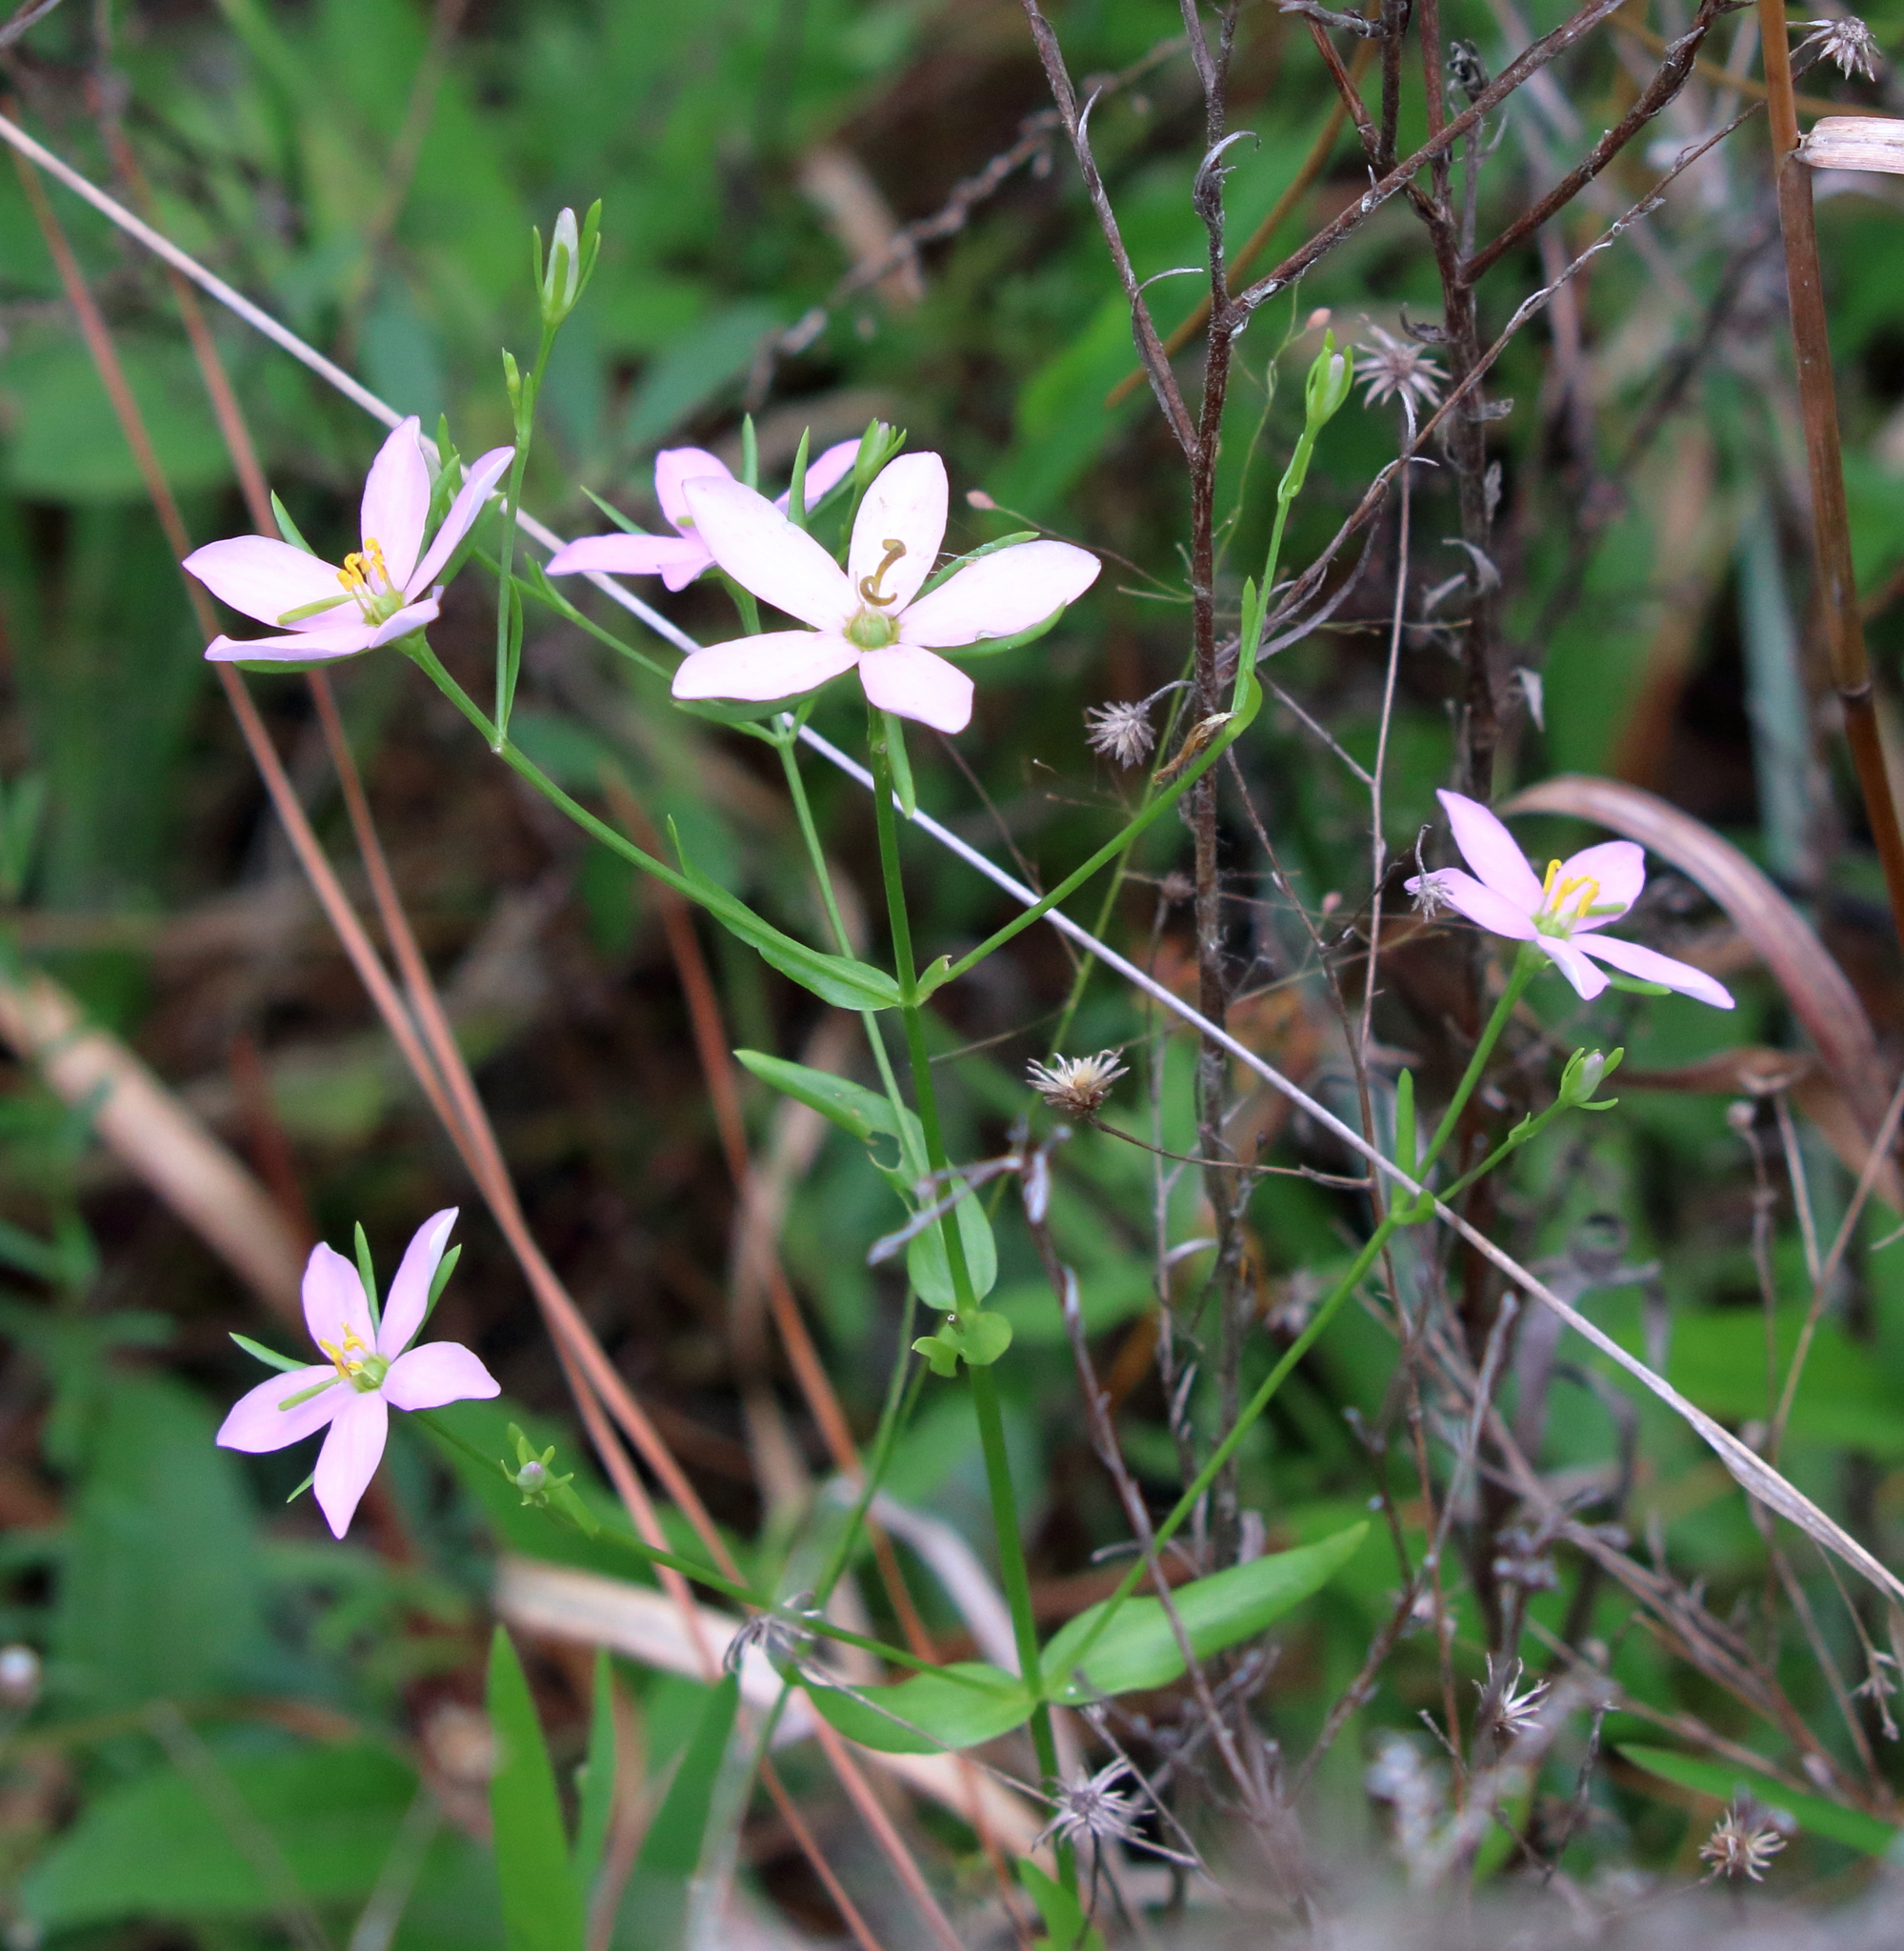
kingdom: Plantae
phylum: Tracheophyta
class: Magnoliopsida
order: Gentianales
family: Gentianaceae
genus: Sabatia
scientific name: Sabatia brachiata
